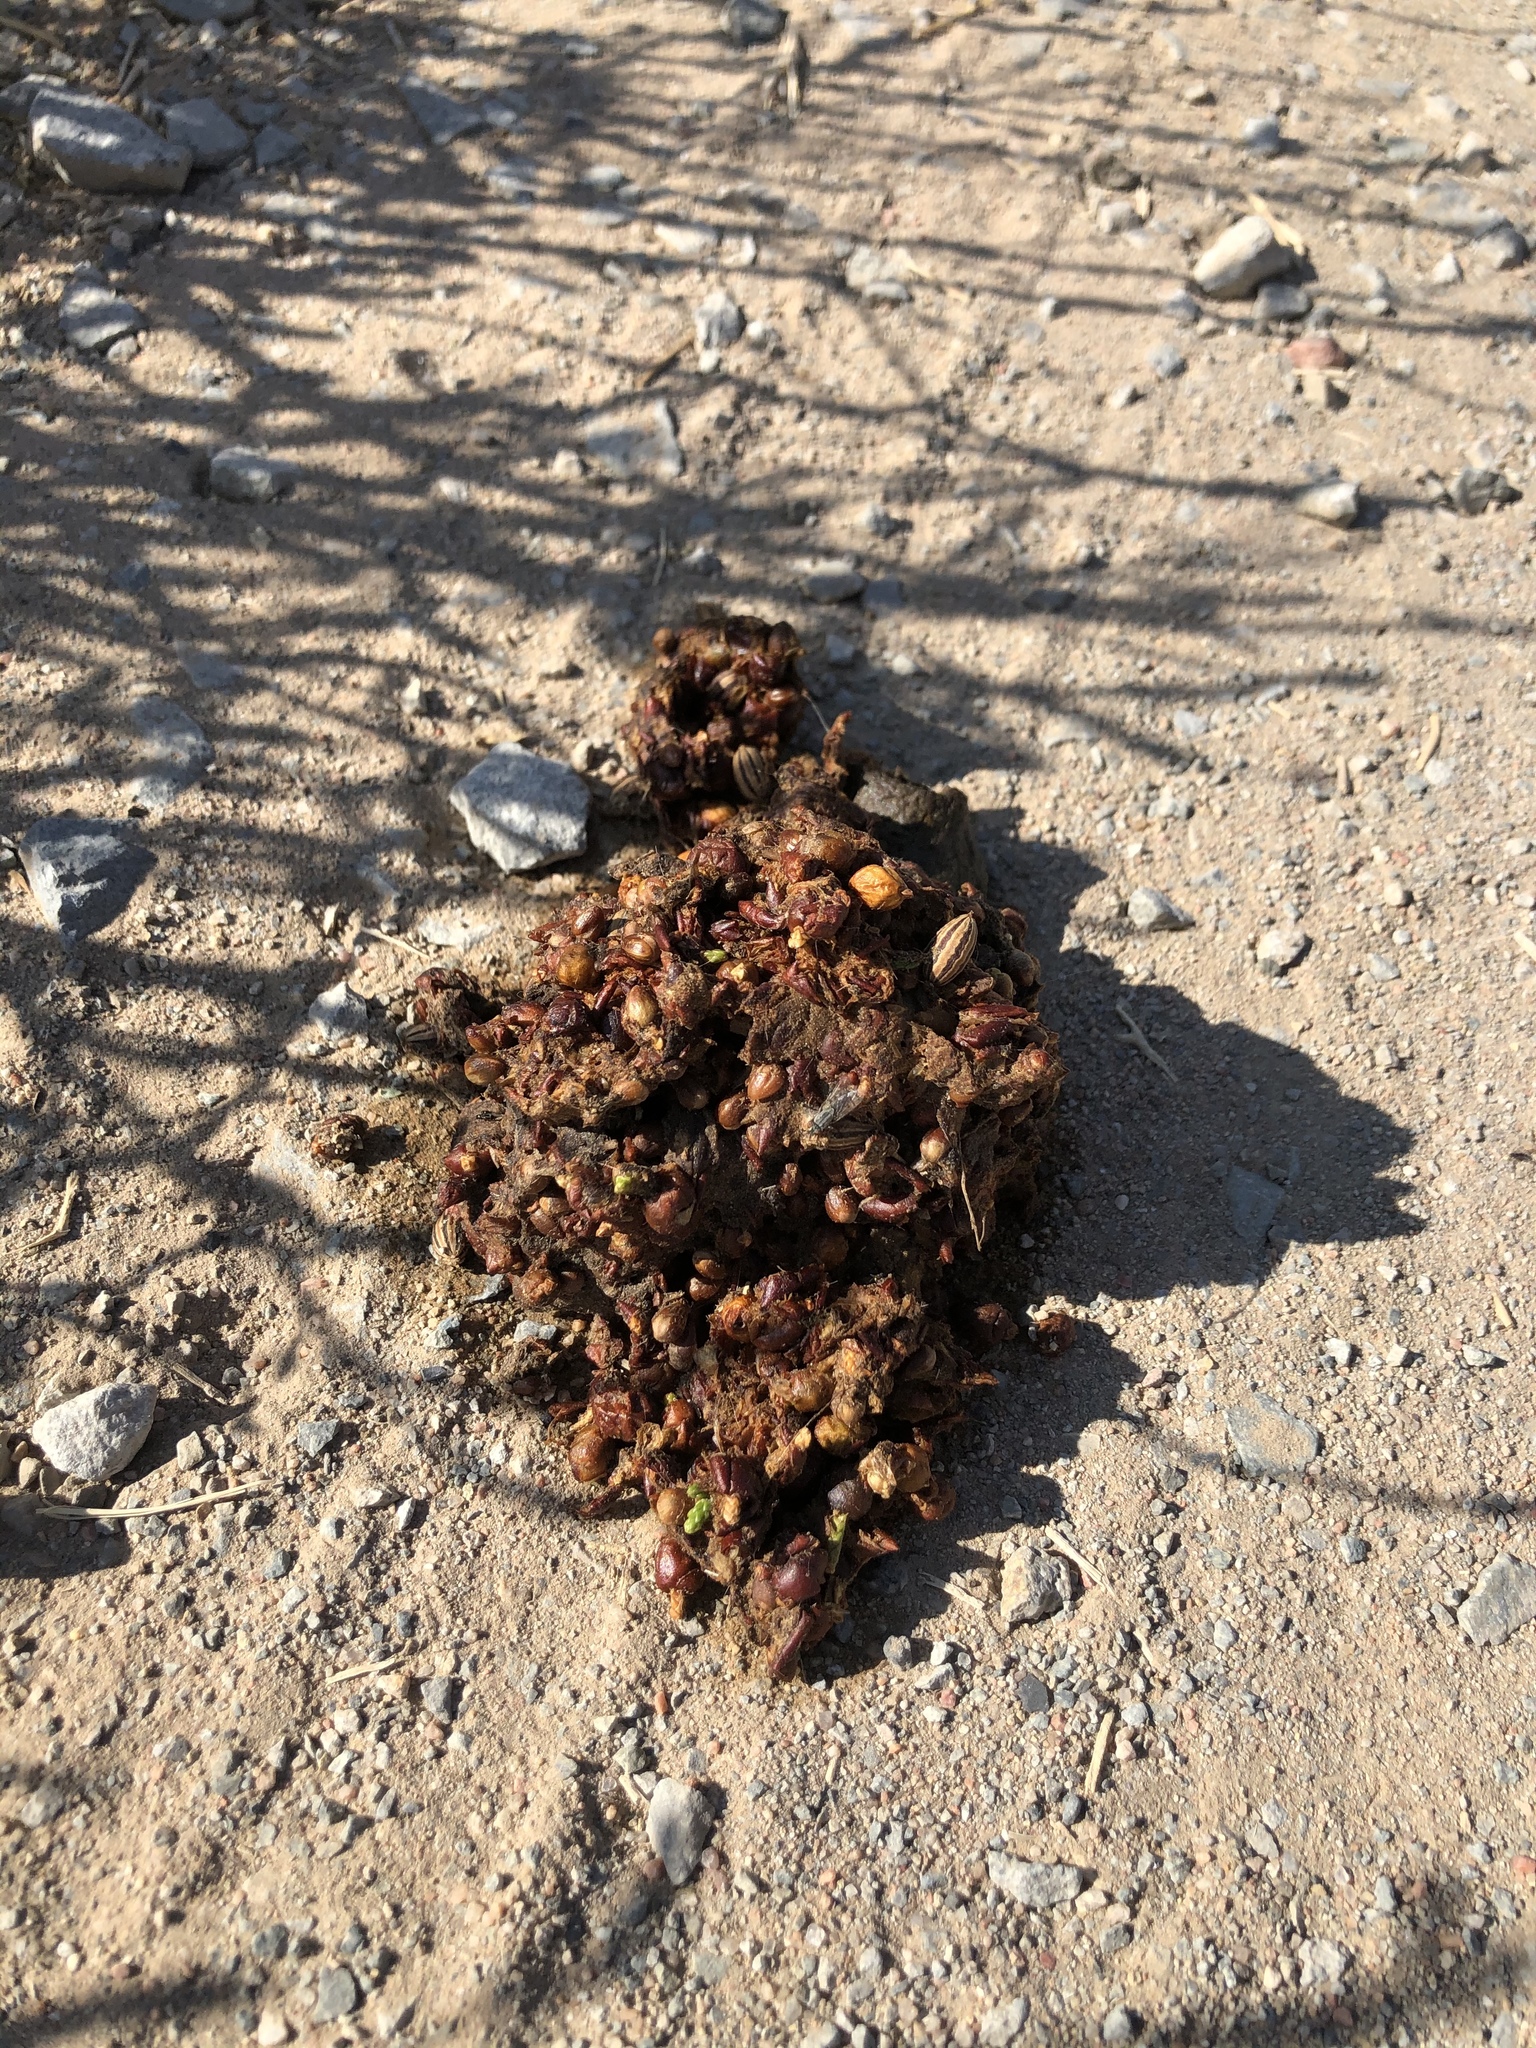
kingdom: Animalia
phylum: Chordata
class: Mammalia
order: Carnivora
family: Canidae
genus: Canis
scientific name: Canis latrans
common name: Coyote
